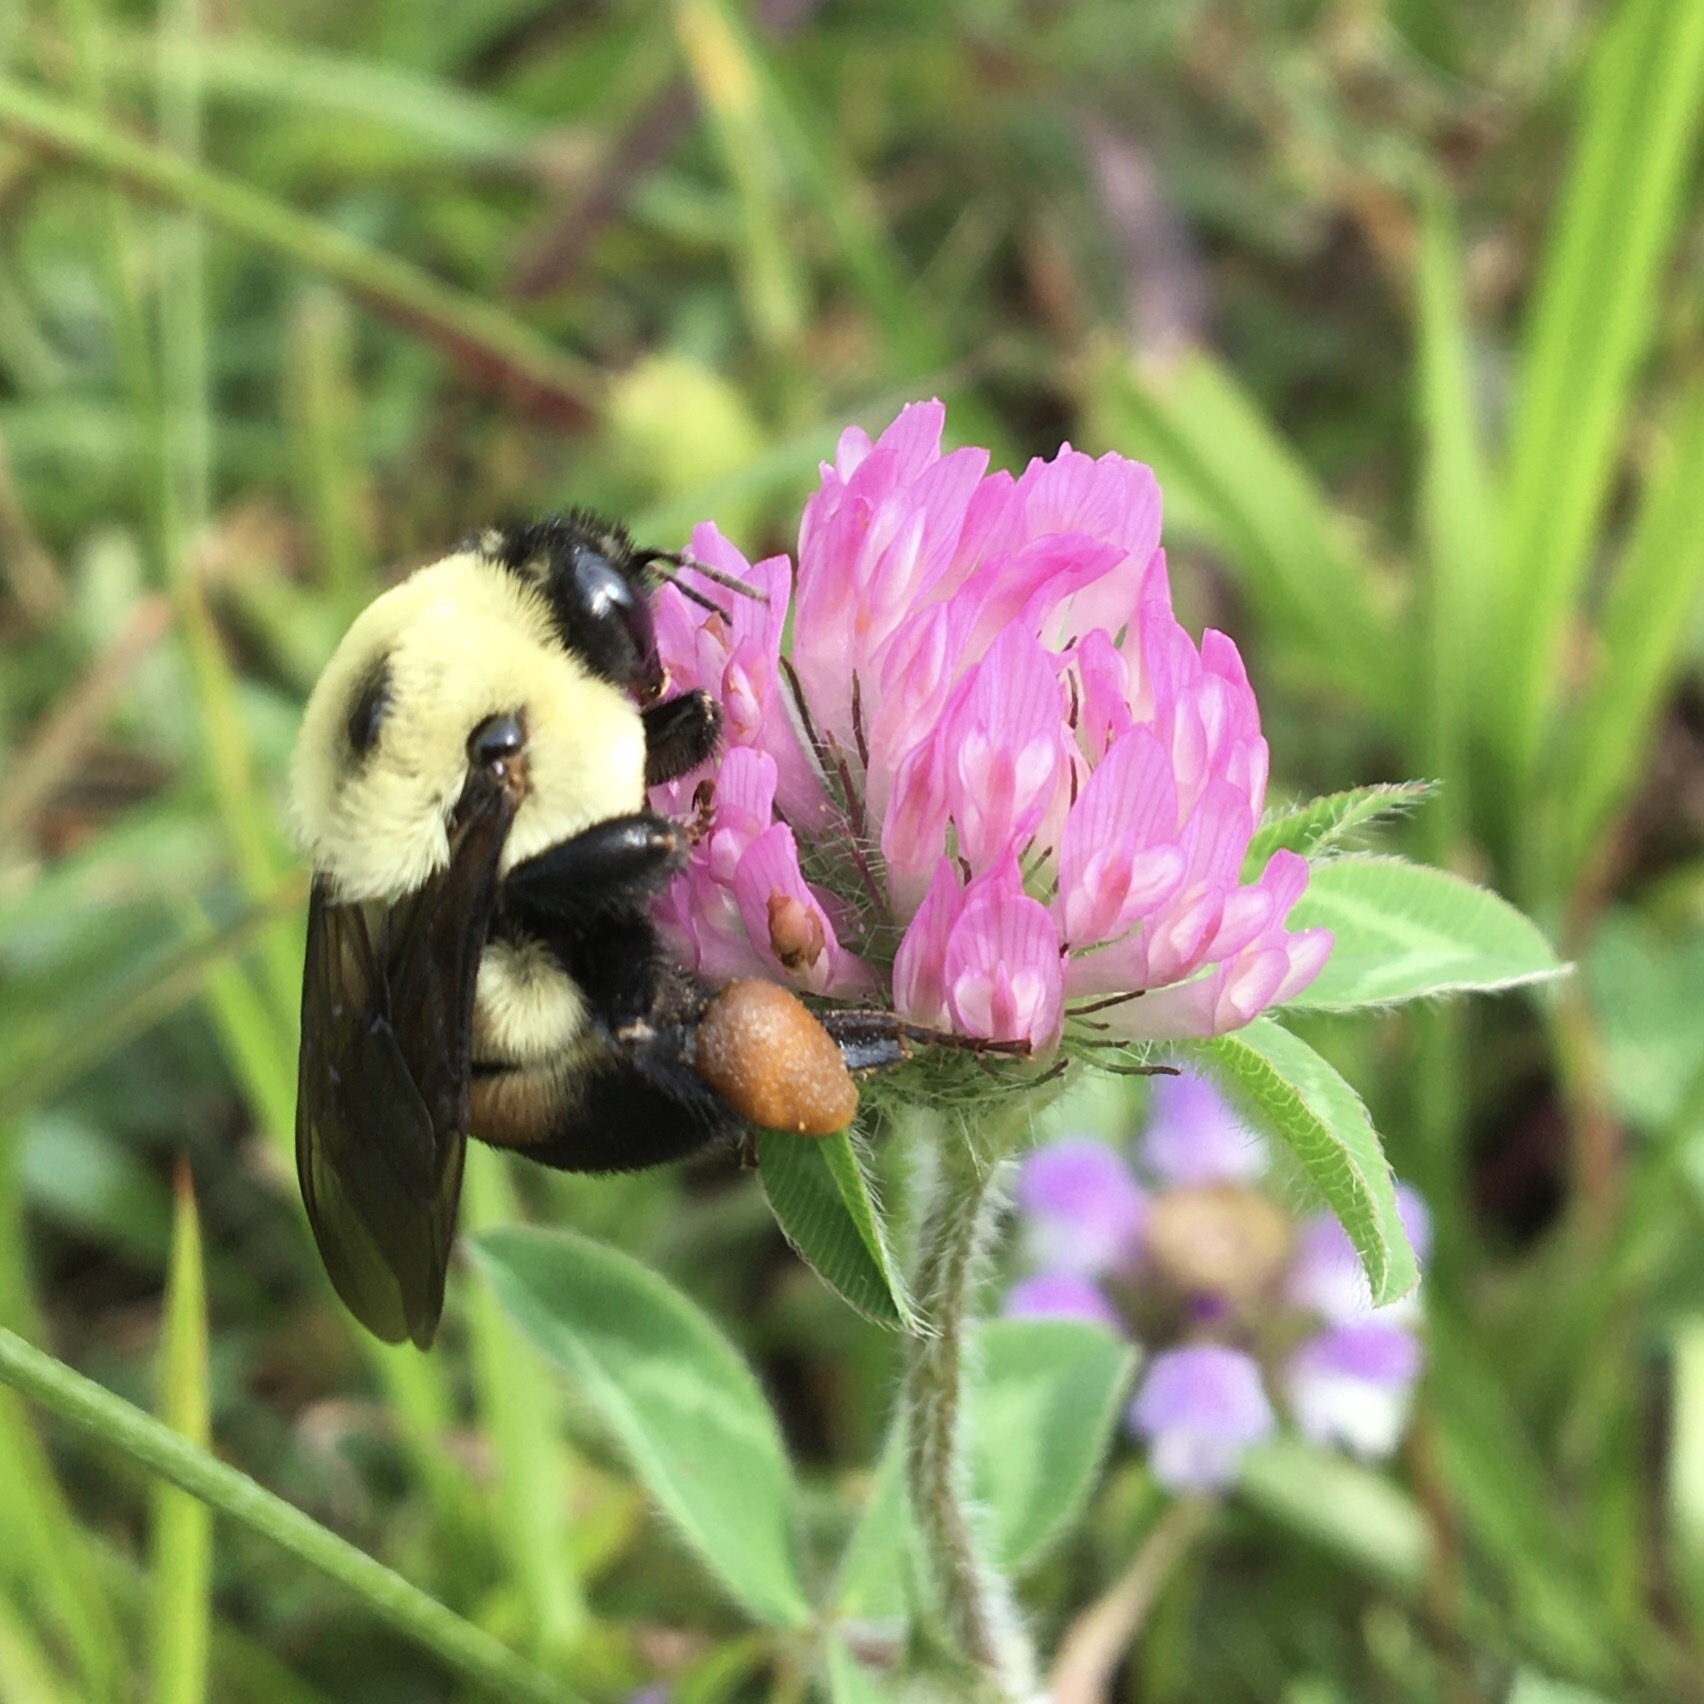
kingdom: Animalia
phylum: Arthropoda
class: Insecta
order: Hymenoptera
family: Apidae
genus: Bombus
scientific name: Bombus griseocollis
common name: Brown-belted bumble bee
